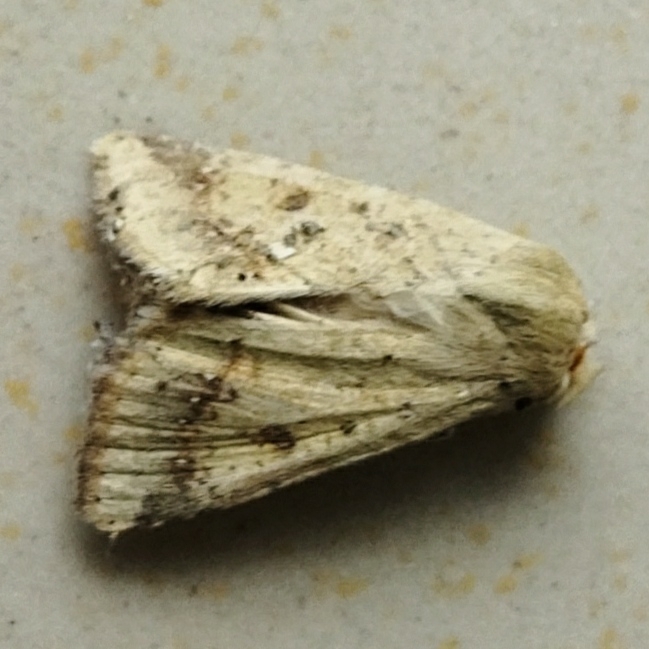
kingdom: Animalia
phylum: Arthropoda
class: Insecta
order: Lepidoptera
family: Noctuidae
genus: Helicoverpa
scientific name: Helicoverpa armigera
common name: Cotton bollworm
